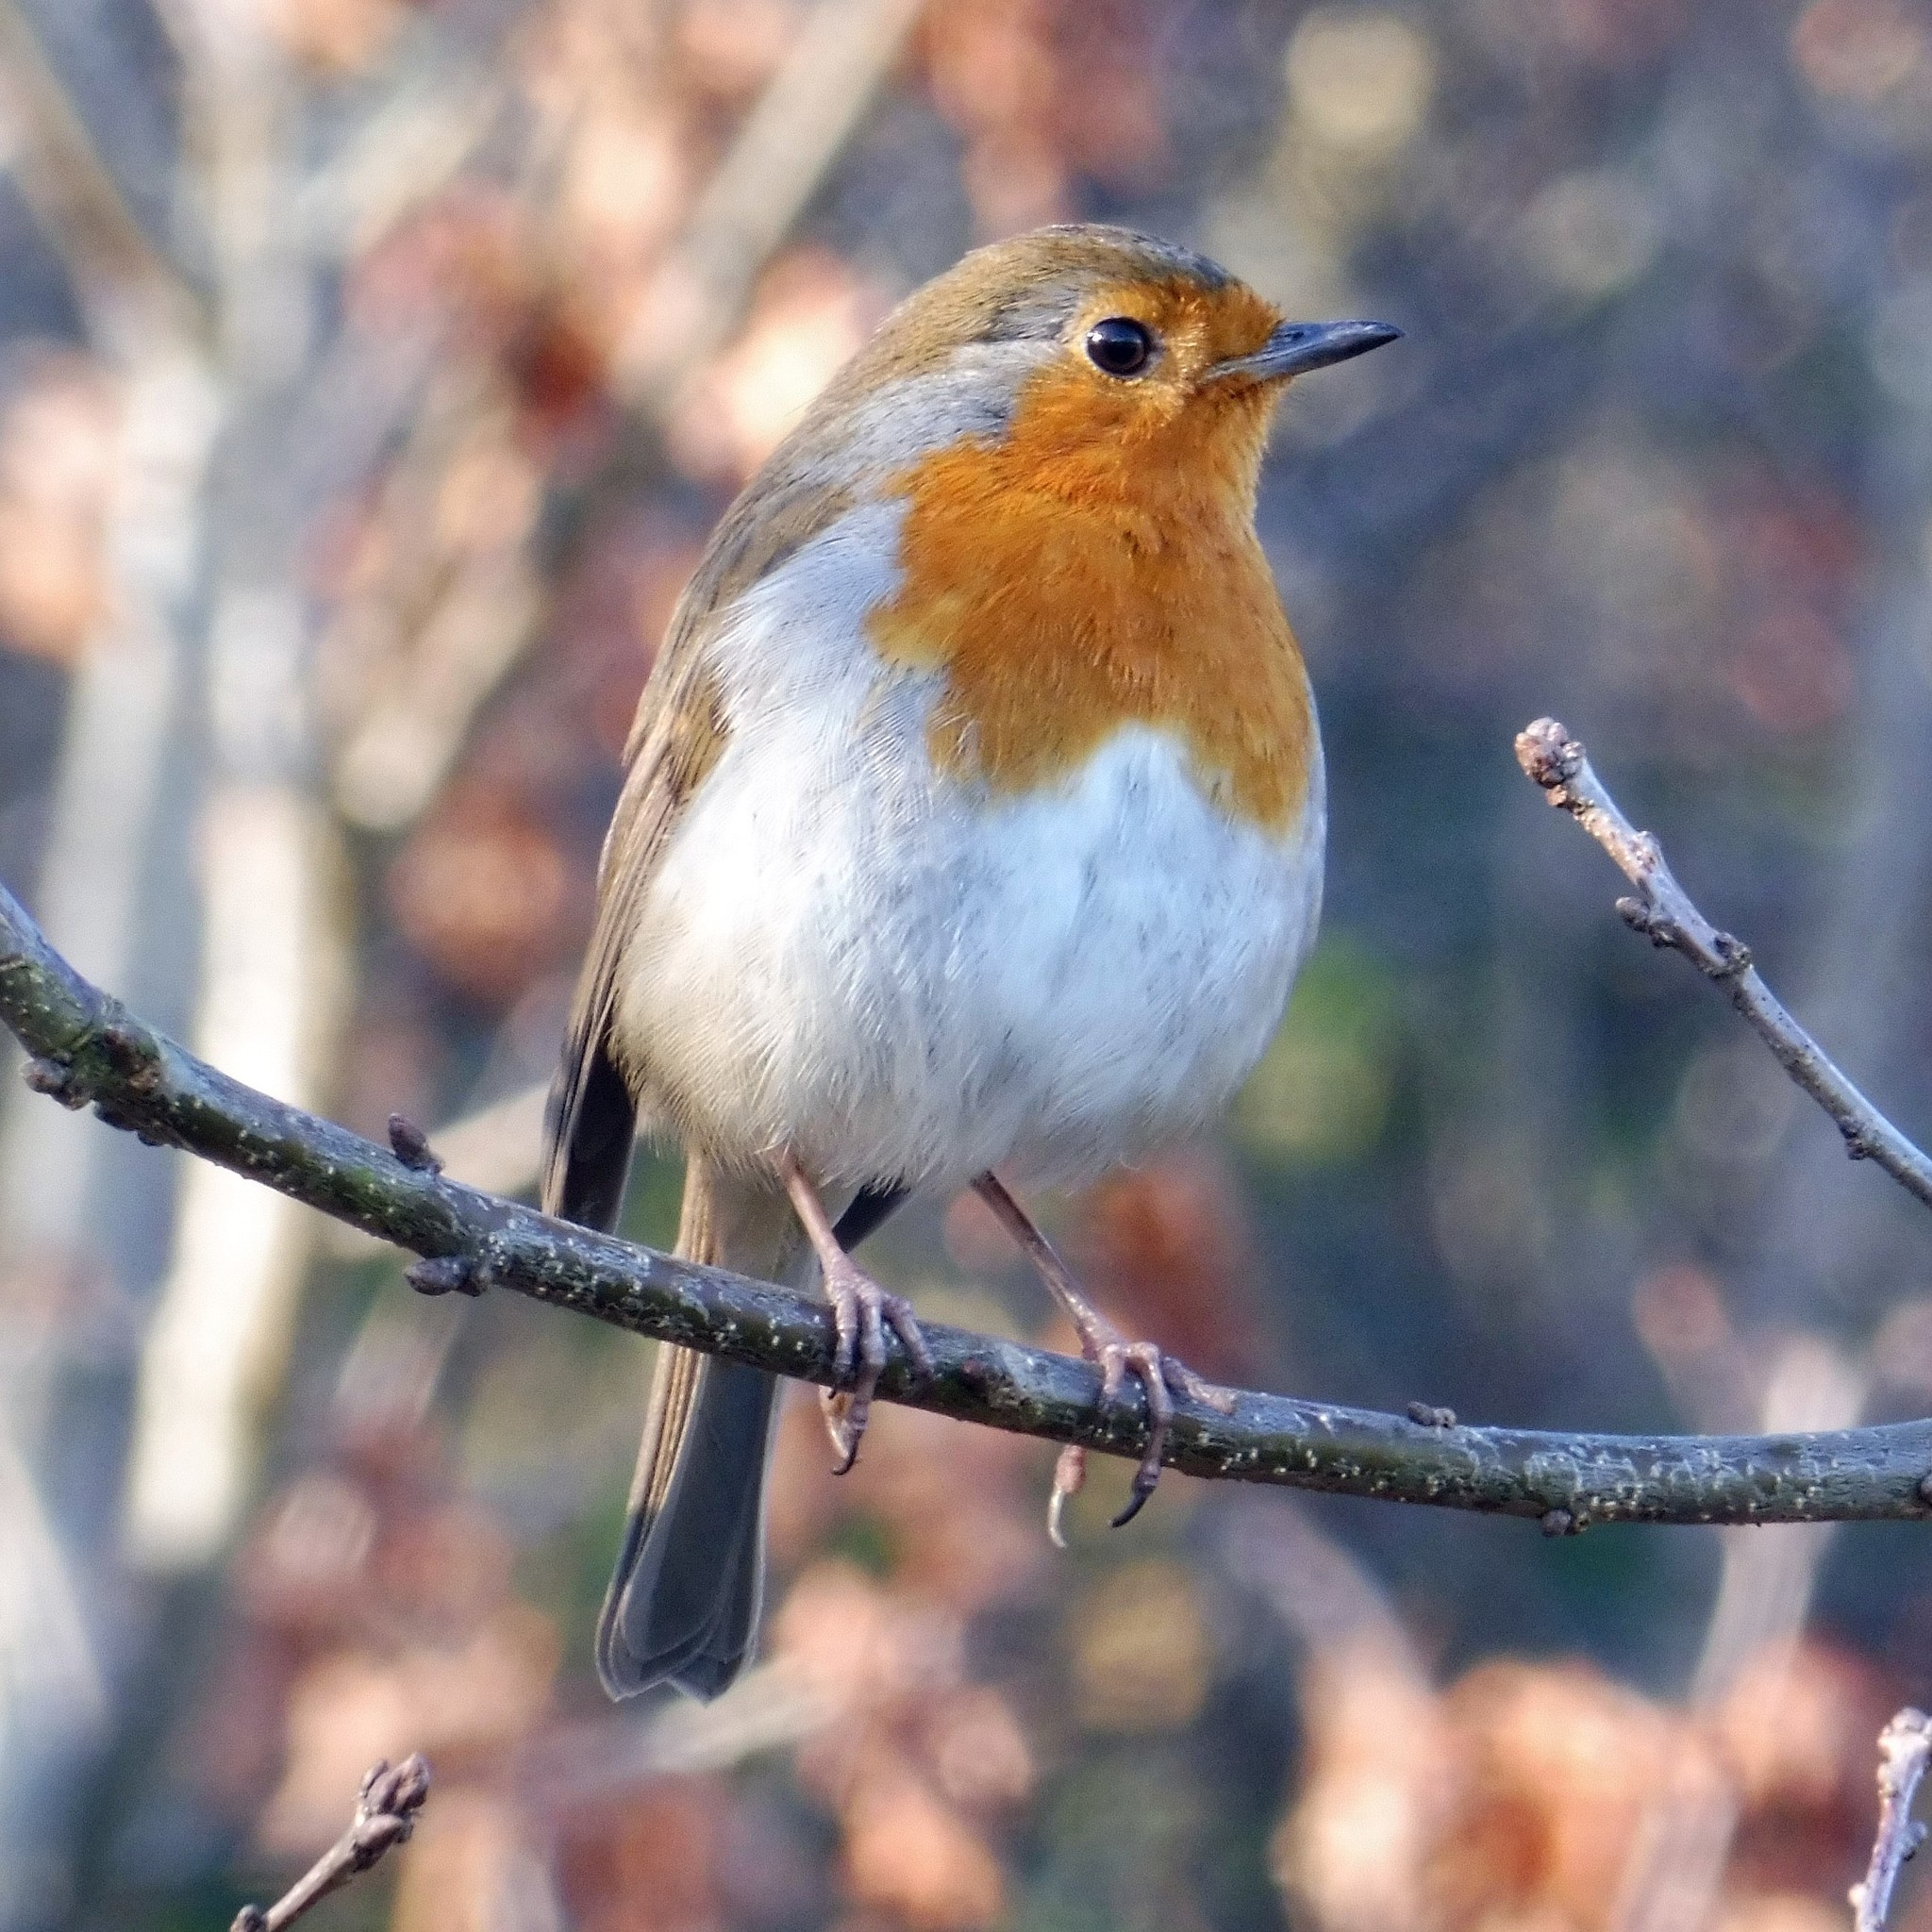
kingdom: Animalia
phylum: Chordata
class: Aves
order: Passeriformes
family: Muscicapidae
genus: Erithacus
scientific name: Erithacus rubecula
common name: European robin
